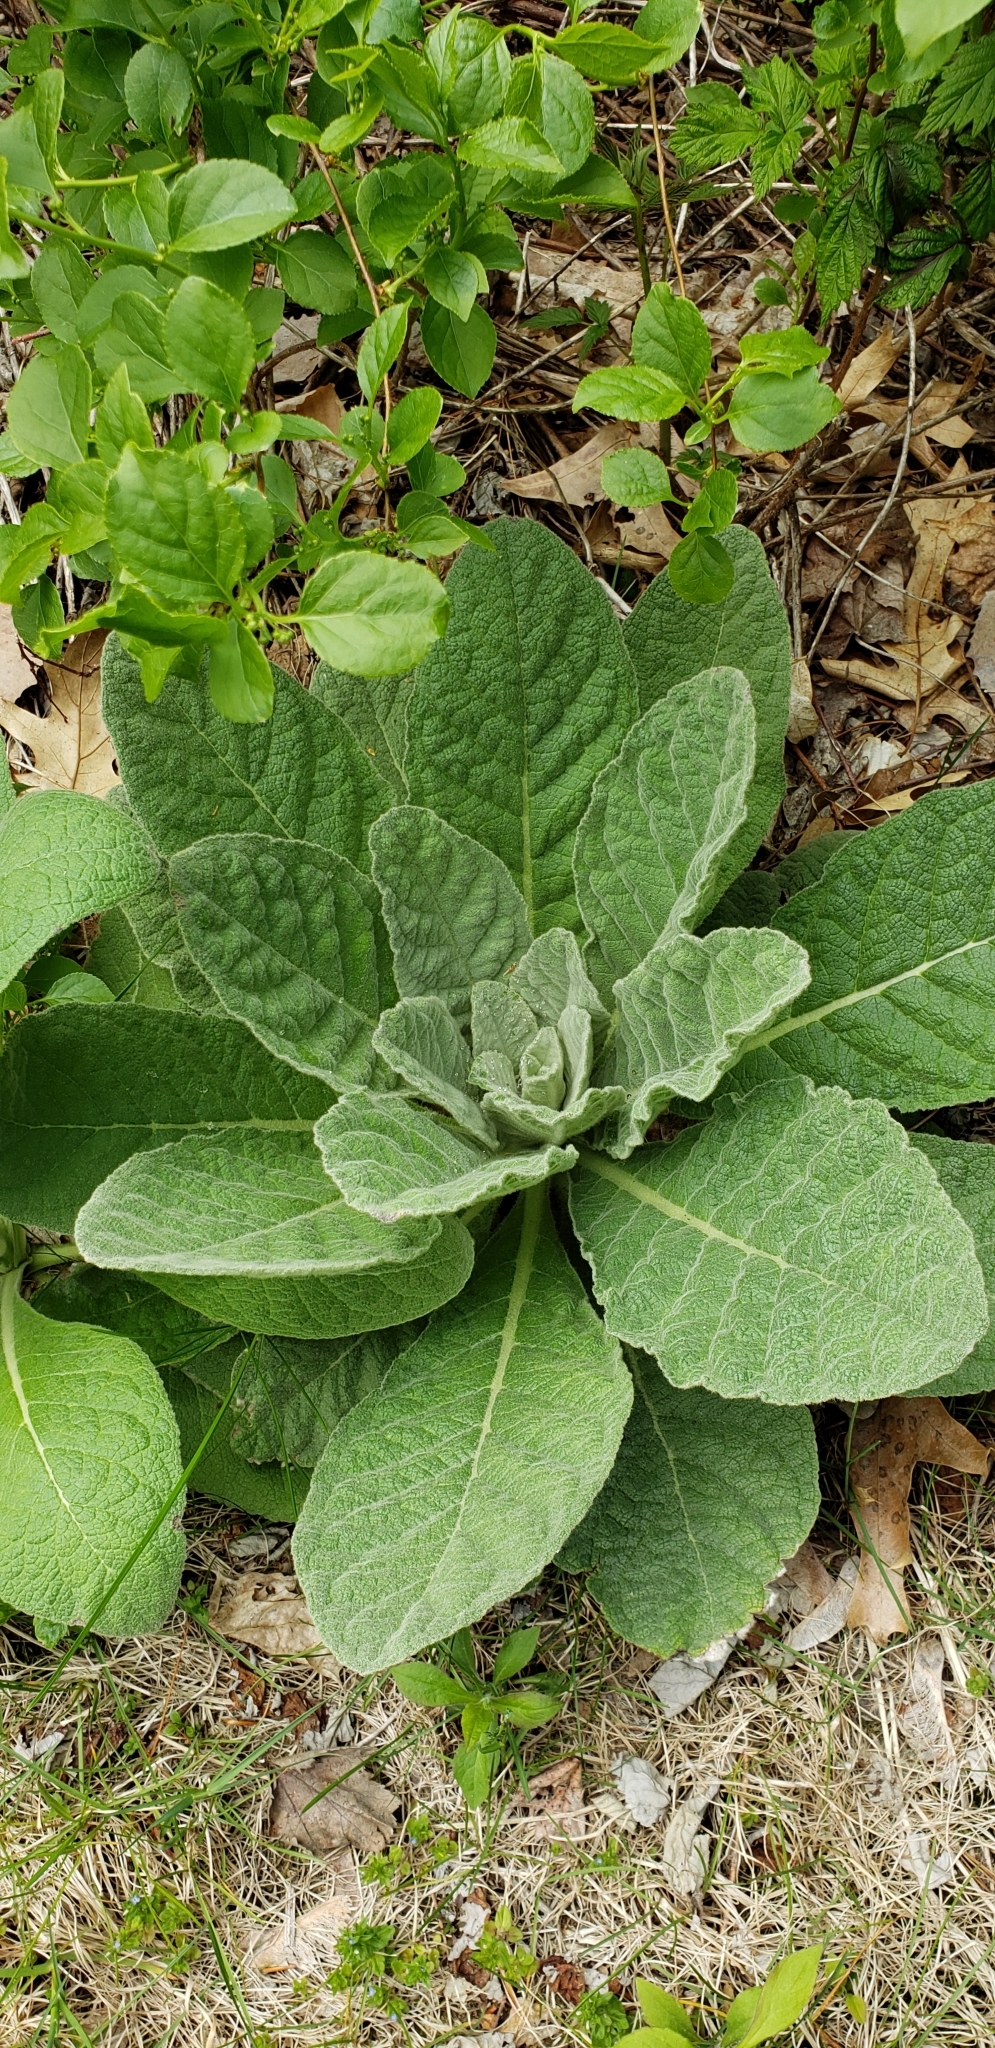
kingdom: Plantae
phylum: Tracheophyta
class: Magnoliopsida
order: Lamiales
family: Scrophulariaceae
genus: Verbascum
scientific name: Verbascum thapsus
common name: Common mullein
